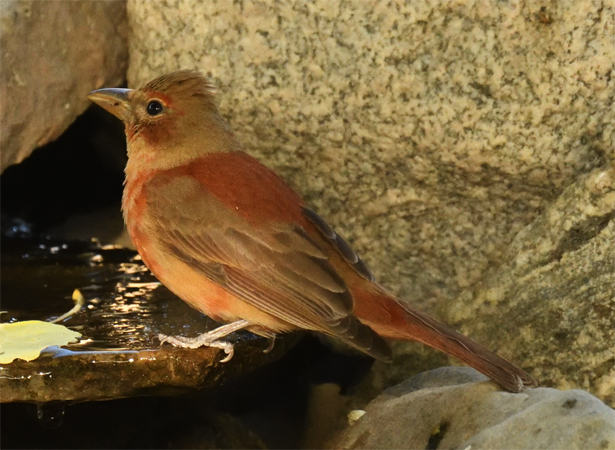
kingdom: Animalia
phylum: Chordata
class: Aves
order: Passeriformes
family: Cardinalidae
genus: Piranga
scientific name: Piranga rubra
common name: Summer tanager
